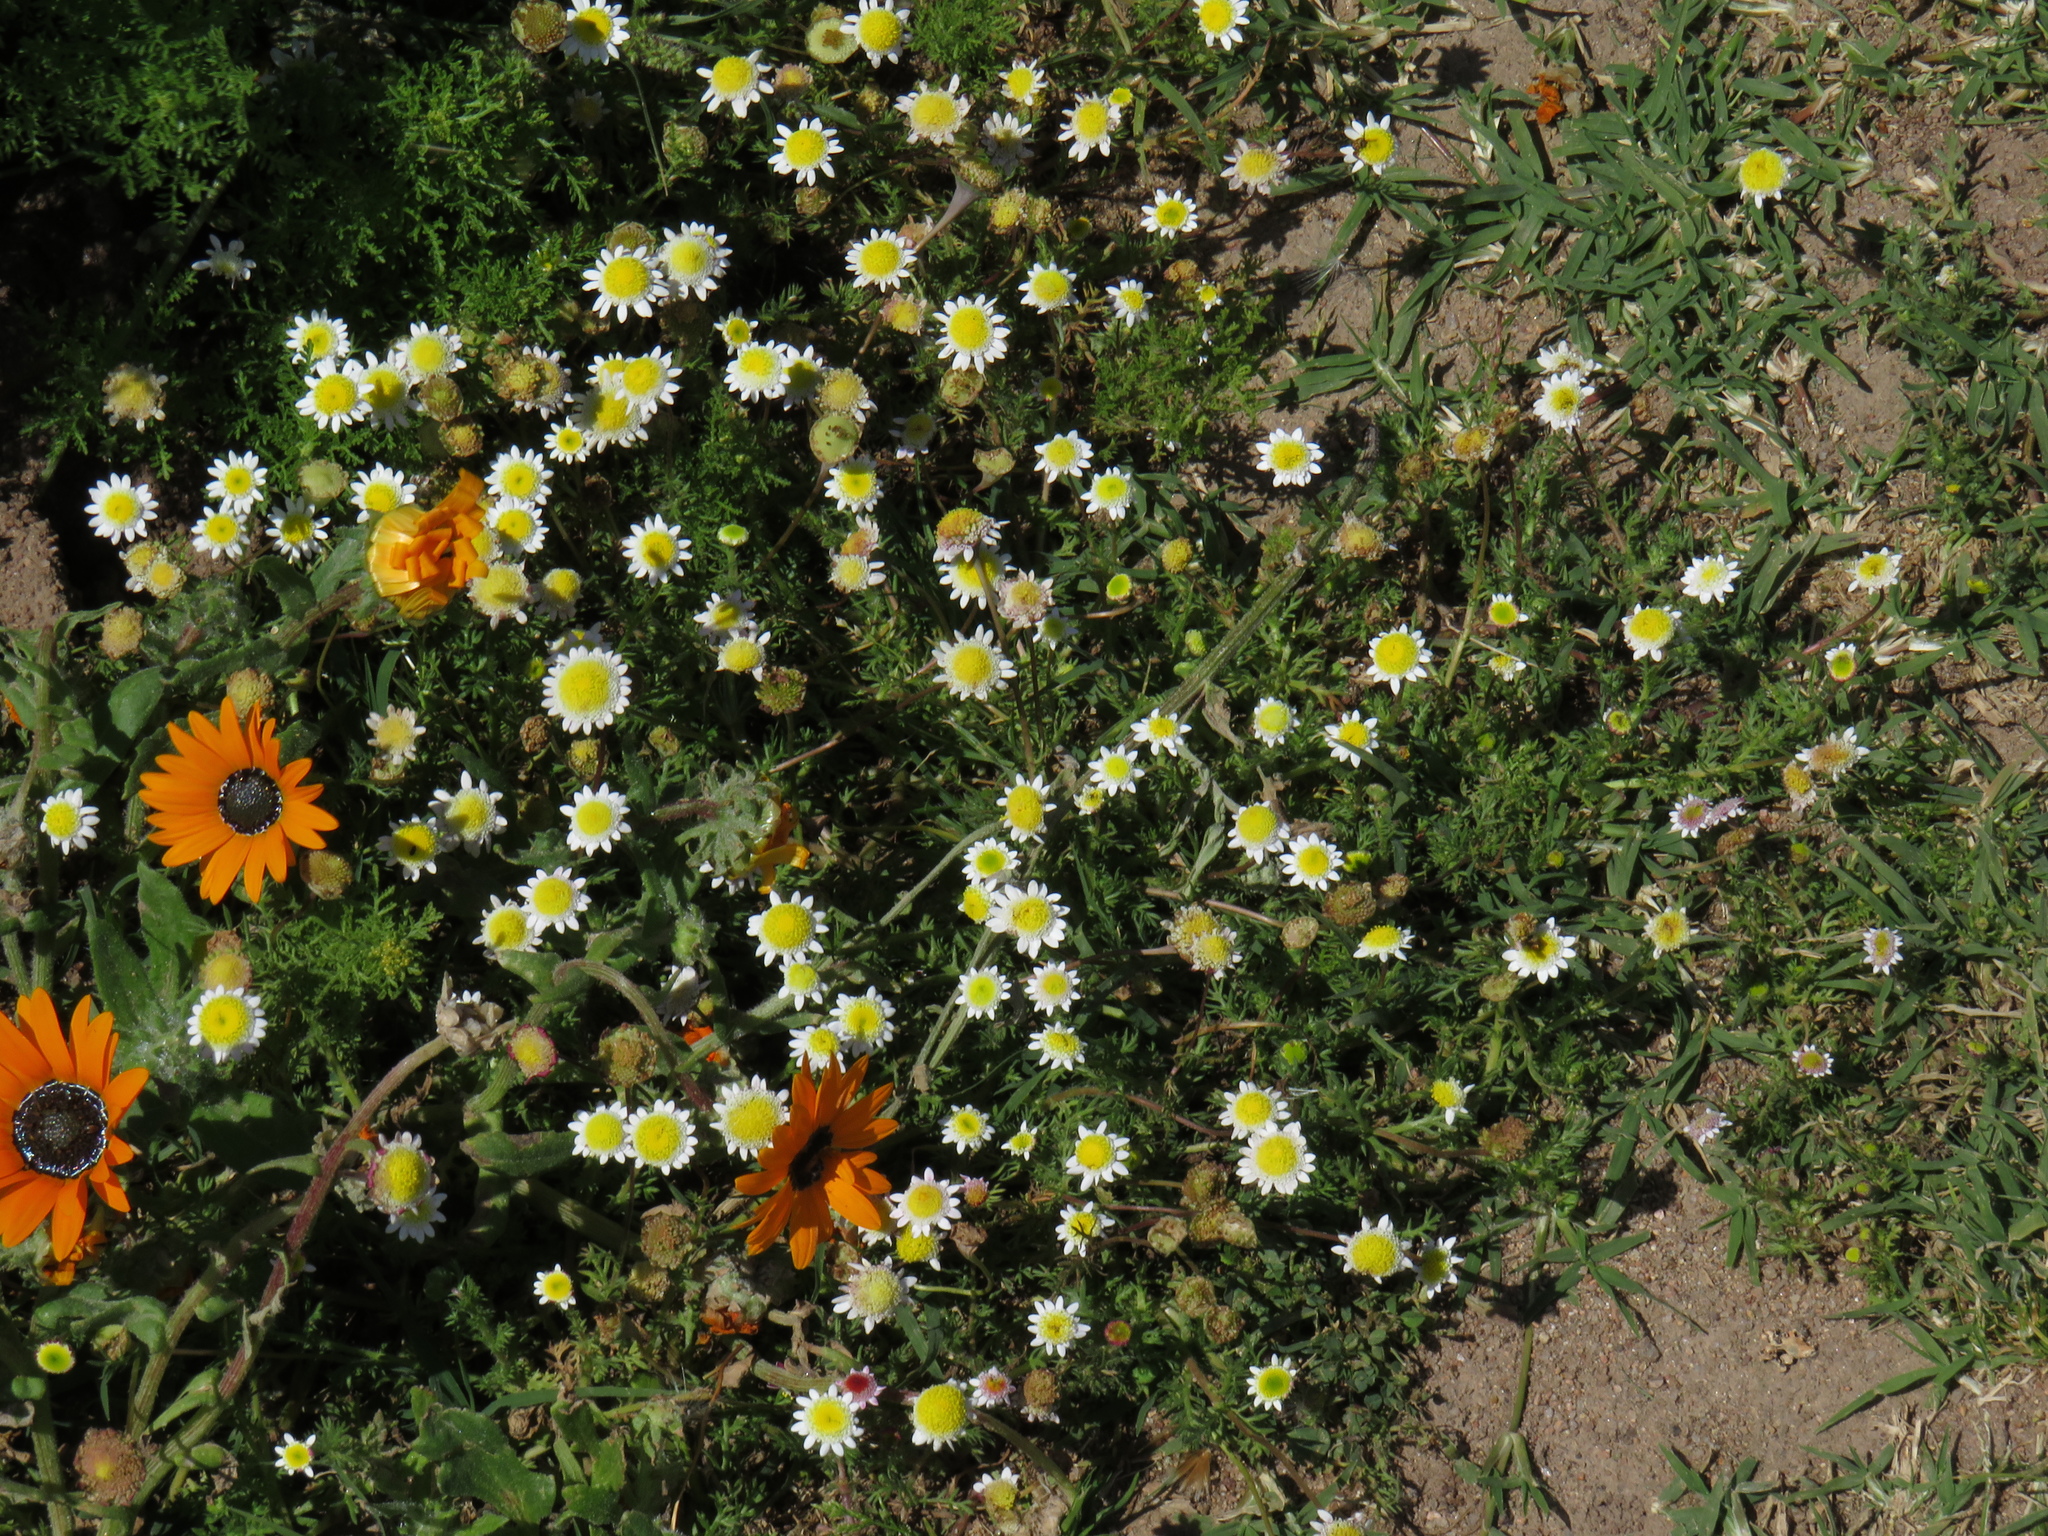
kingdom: Plantae
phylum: Tracheophyta
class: Magnoliopsida
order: Asterales
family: Asteraceae
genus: Cotula
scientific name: Cotula turbinata
